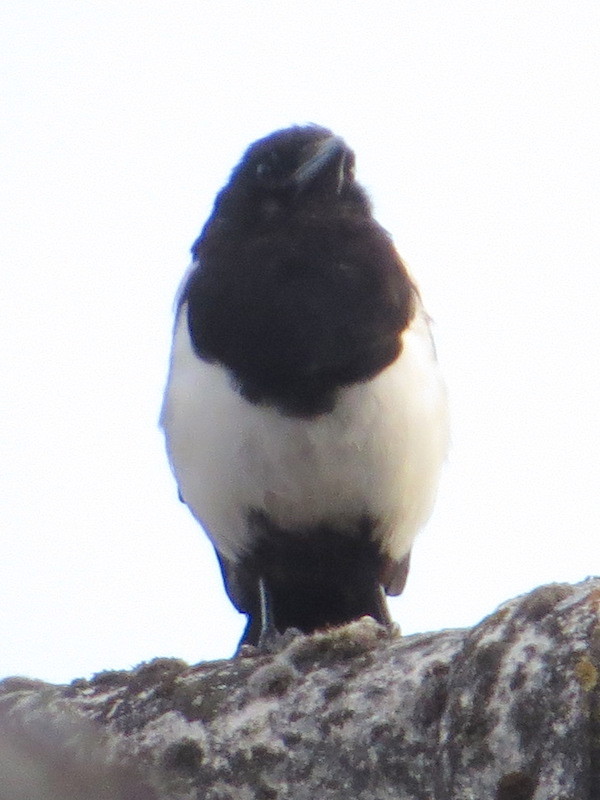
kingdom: Animalia
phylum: Chordata
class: Aves
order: Passeriformes
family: Corvidae
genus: Pica
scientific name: Pica pica
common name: Eurasian magpie
